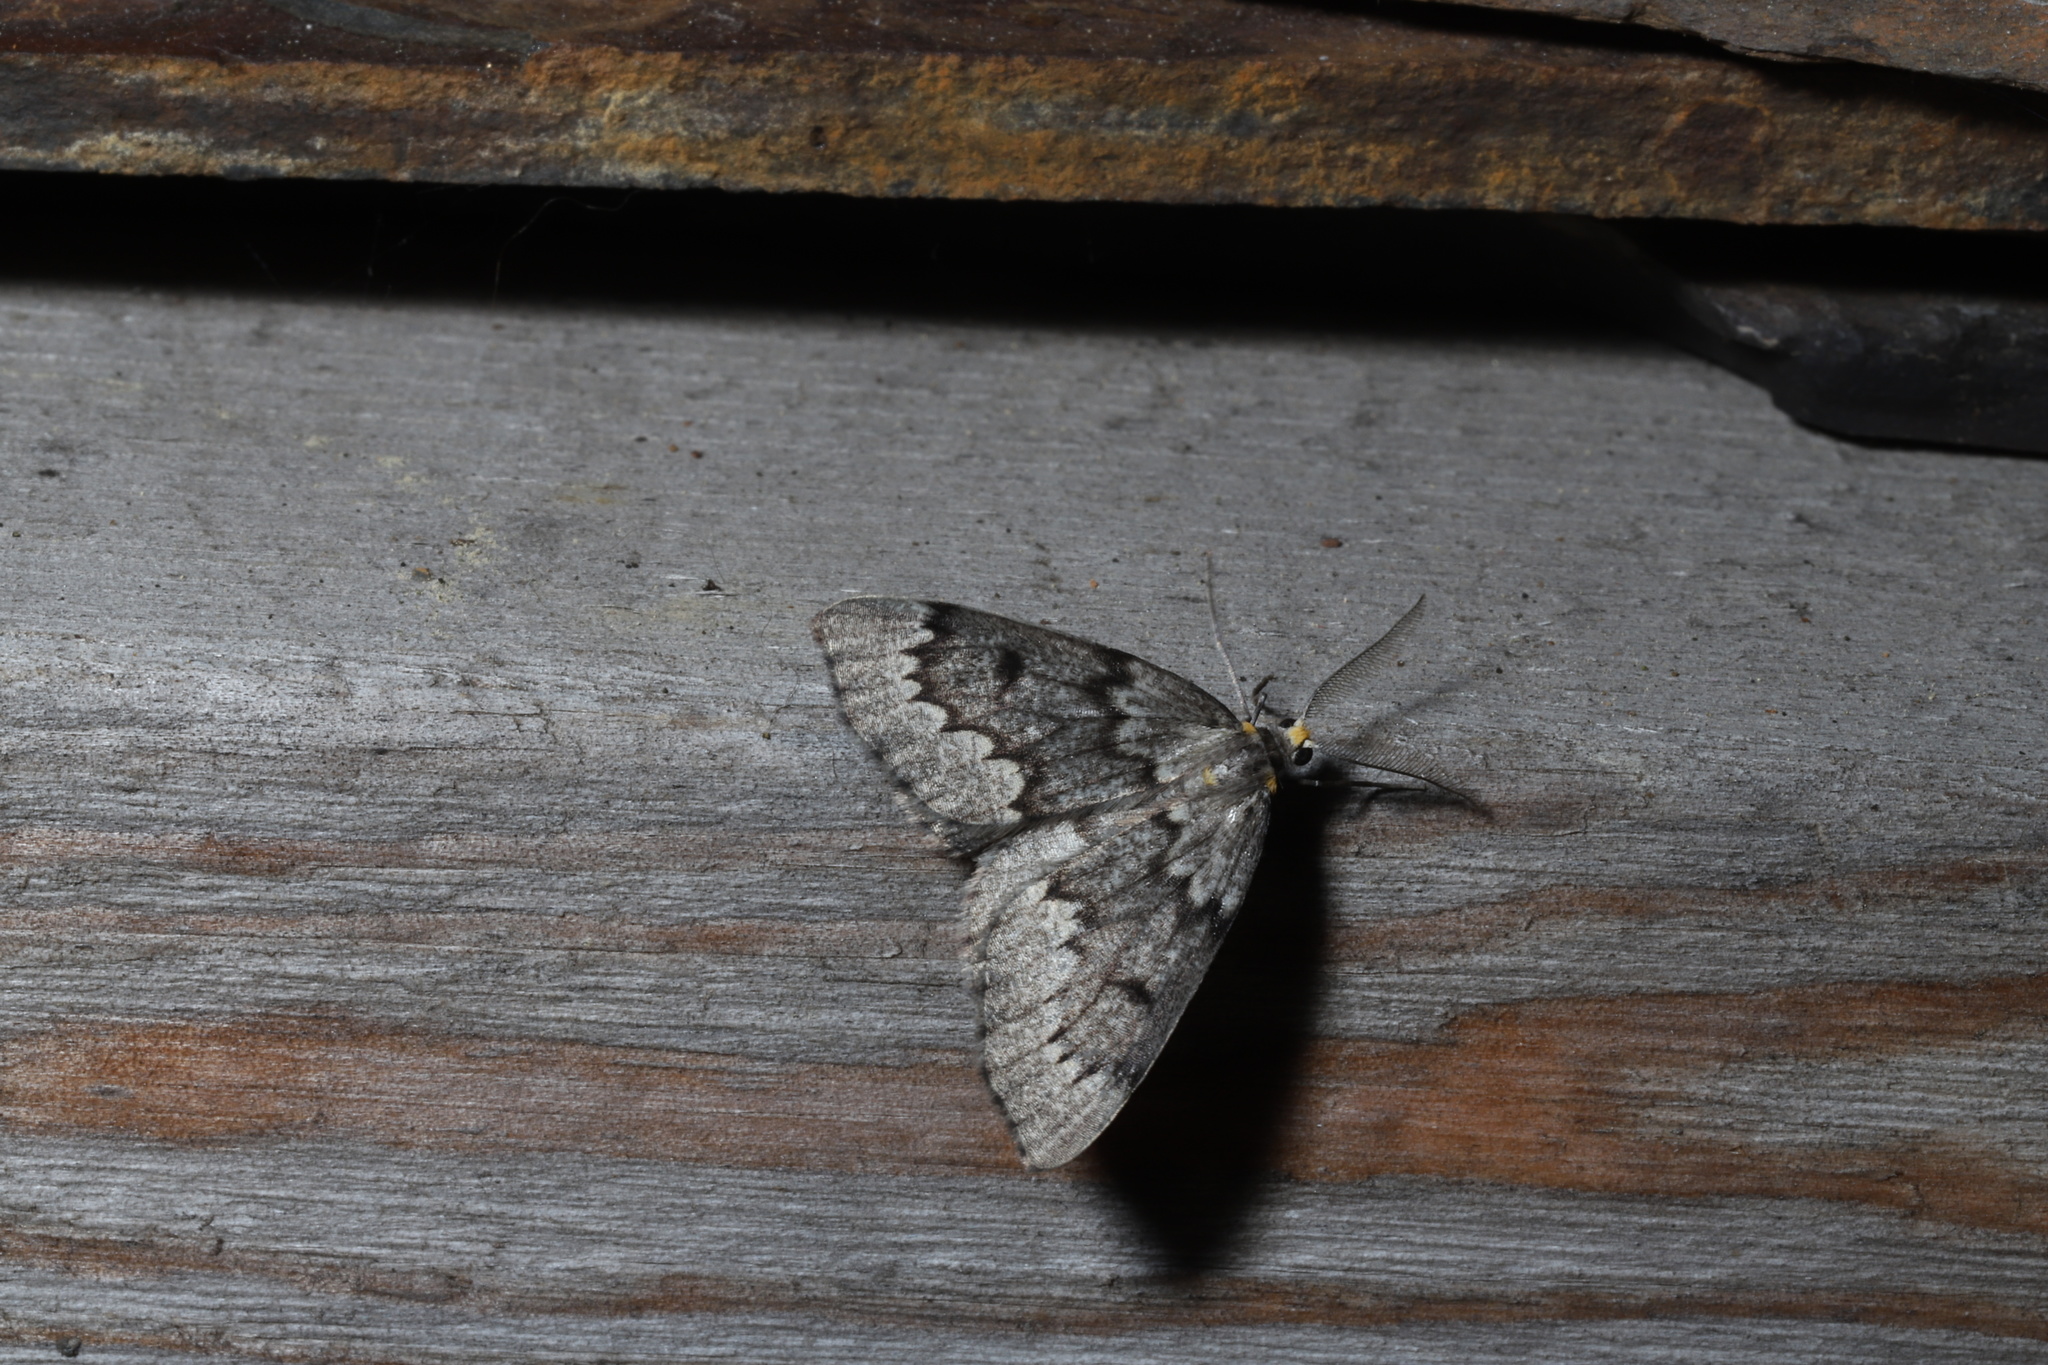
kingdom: Animalia
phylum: Arthropoda
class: Insecta
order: Lepidoptera
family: Geometridae
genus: Nepytia
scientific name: Nepytia canosaria
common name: False hemlock looper
